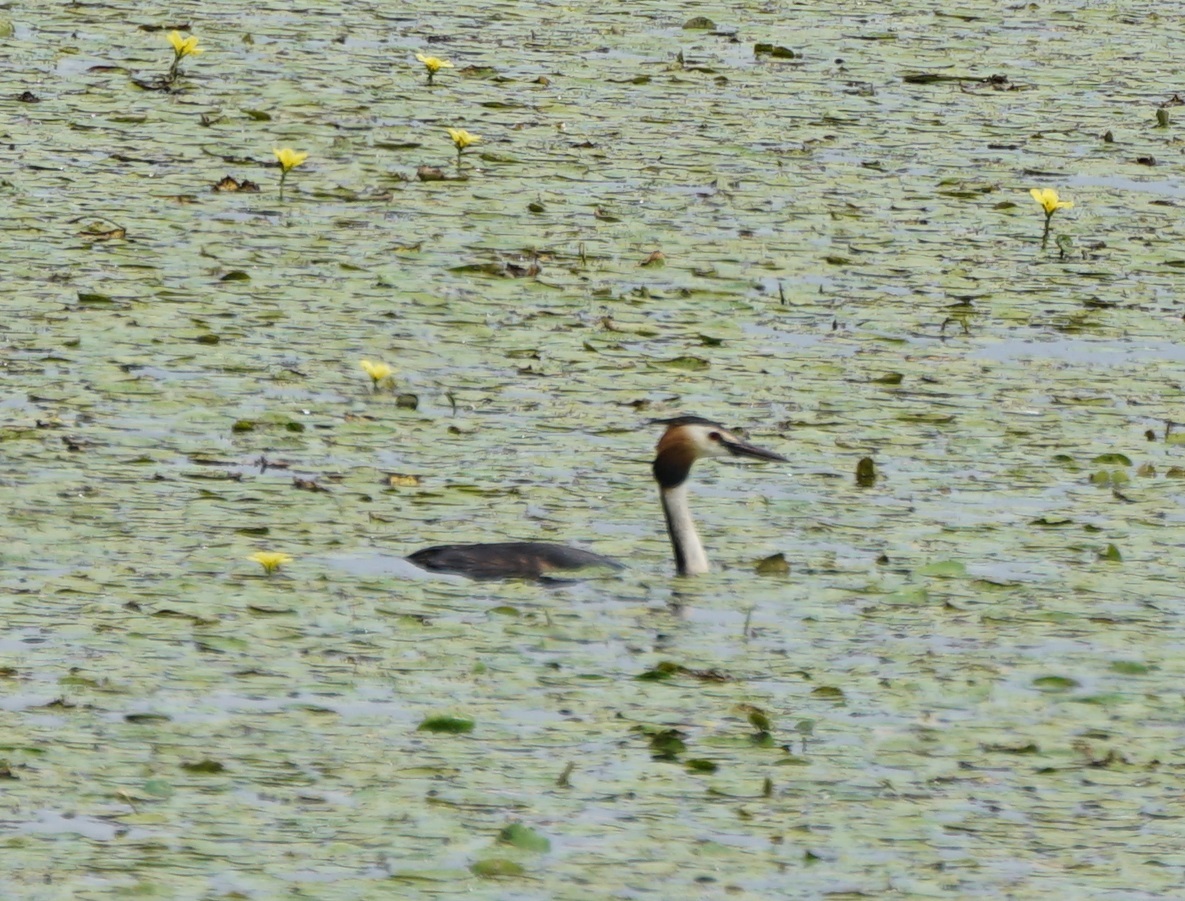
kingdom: Animalia
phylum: Chordata
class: Aves
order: Podicipediformes
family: Podicipedidae
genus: Podiceps
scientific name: Podiceps cristatus
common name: Great crested grebe
